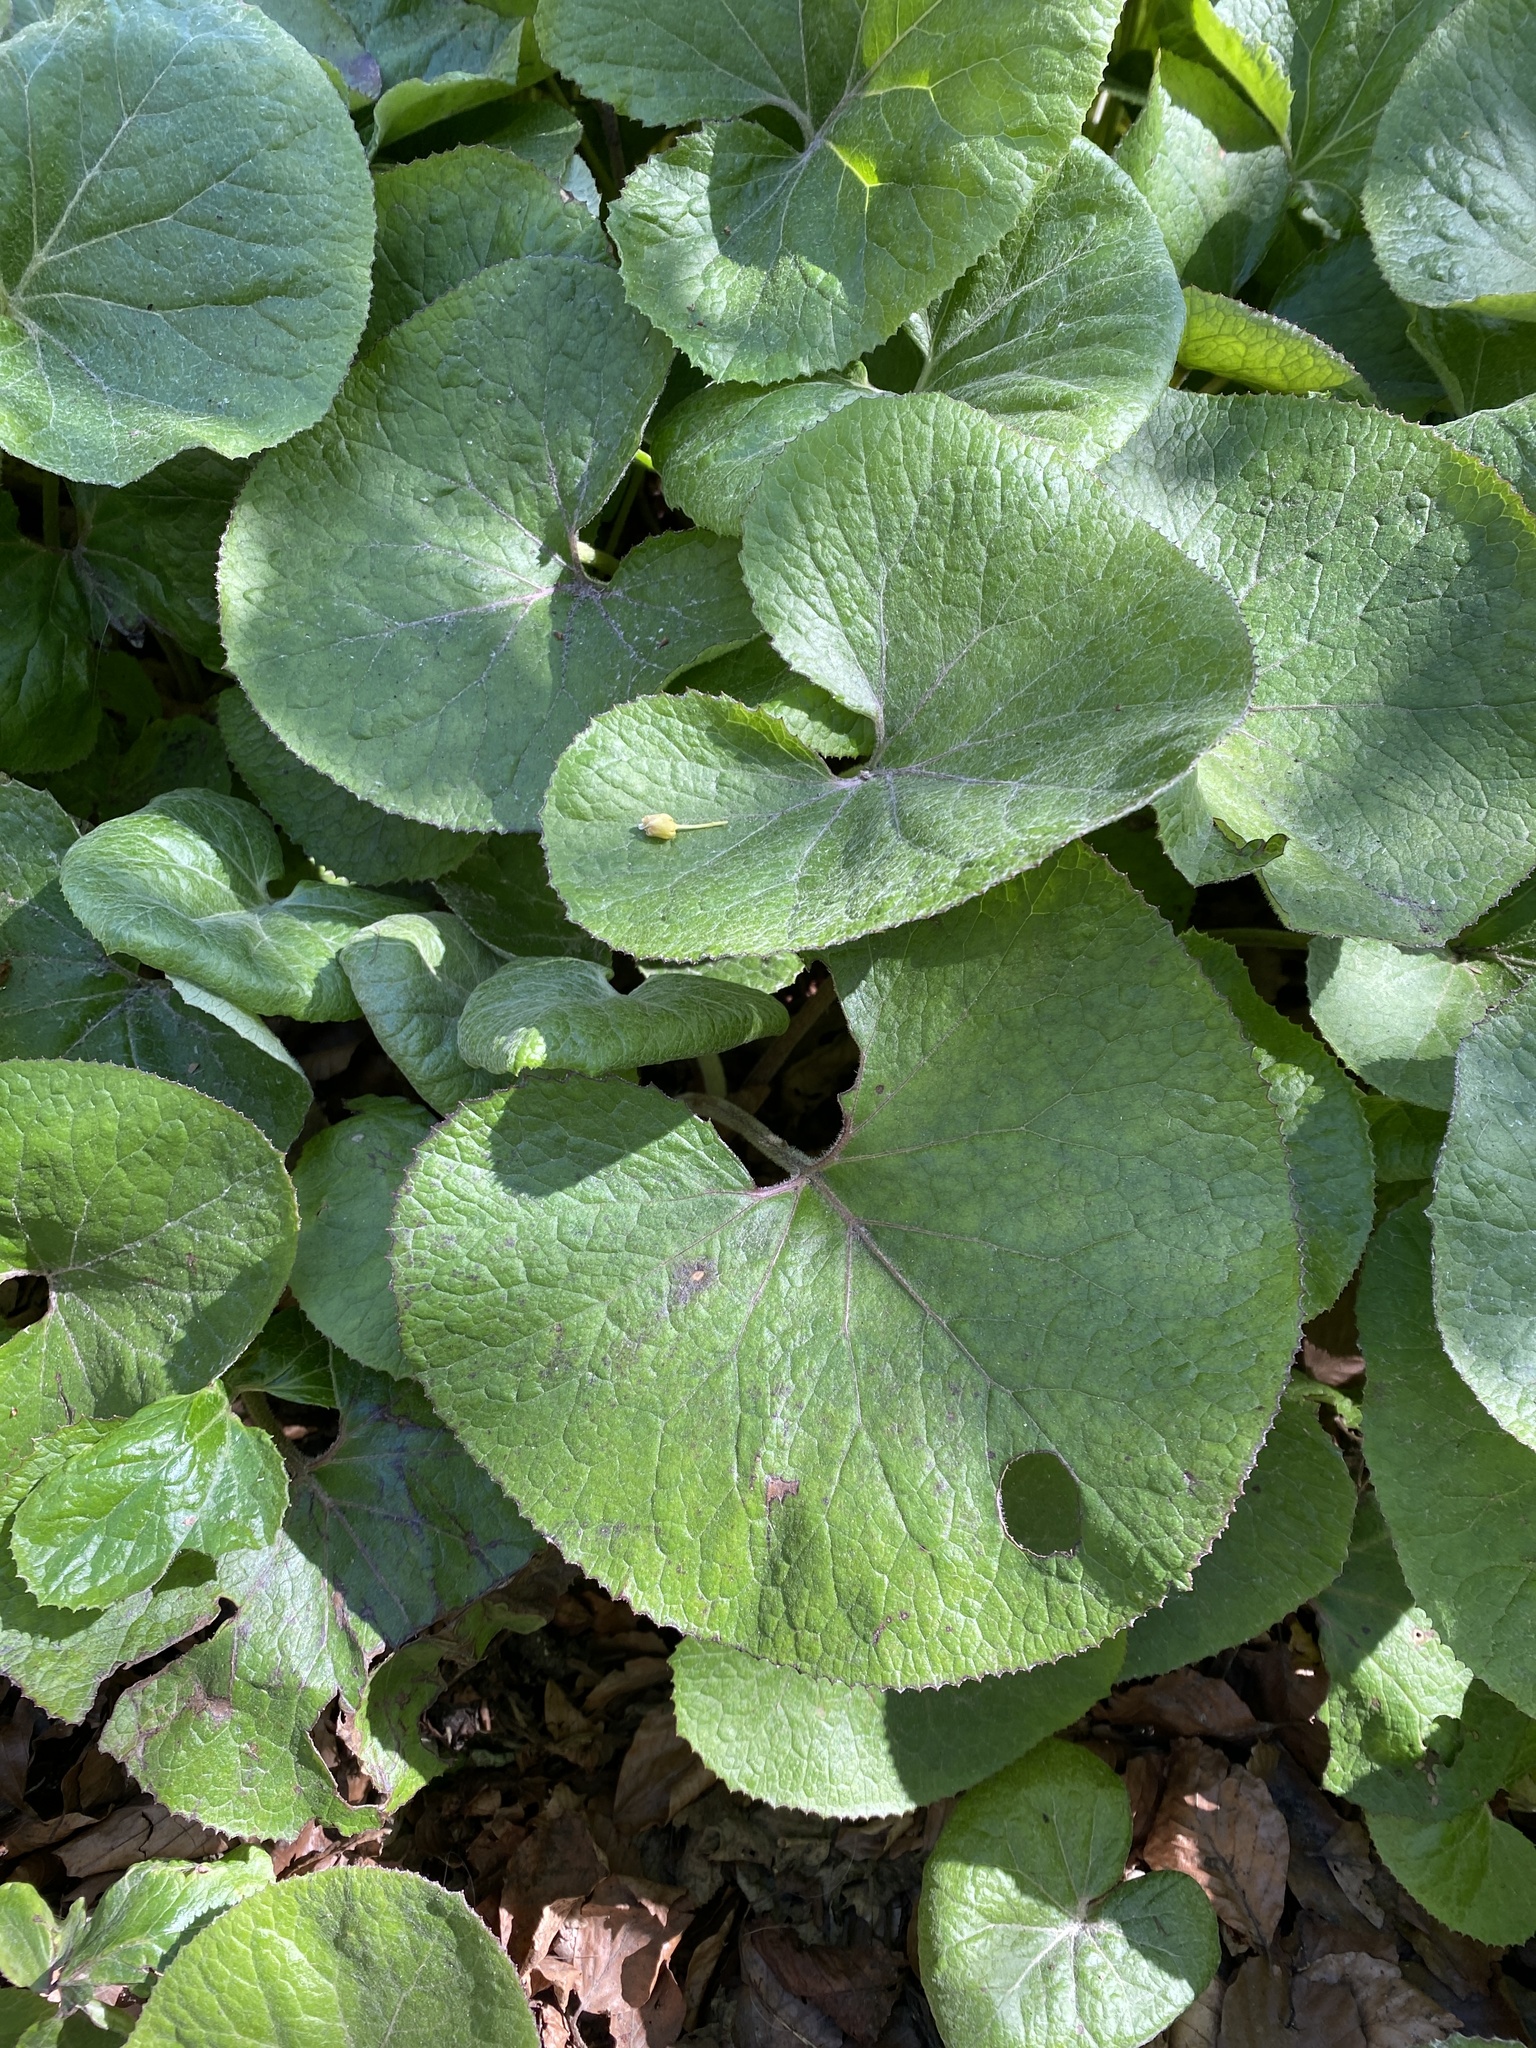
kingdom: Plantae
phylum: Tracheophyta
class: Magnoliopsida
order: Asterales
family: Asteraceae
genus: Petasites
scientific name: Petasites pyrenaicus
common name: Winter heliotrope
